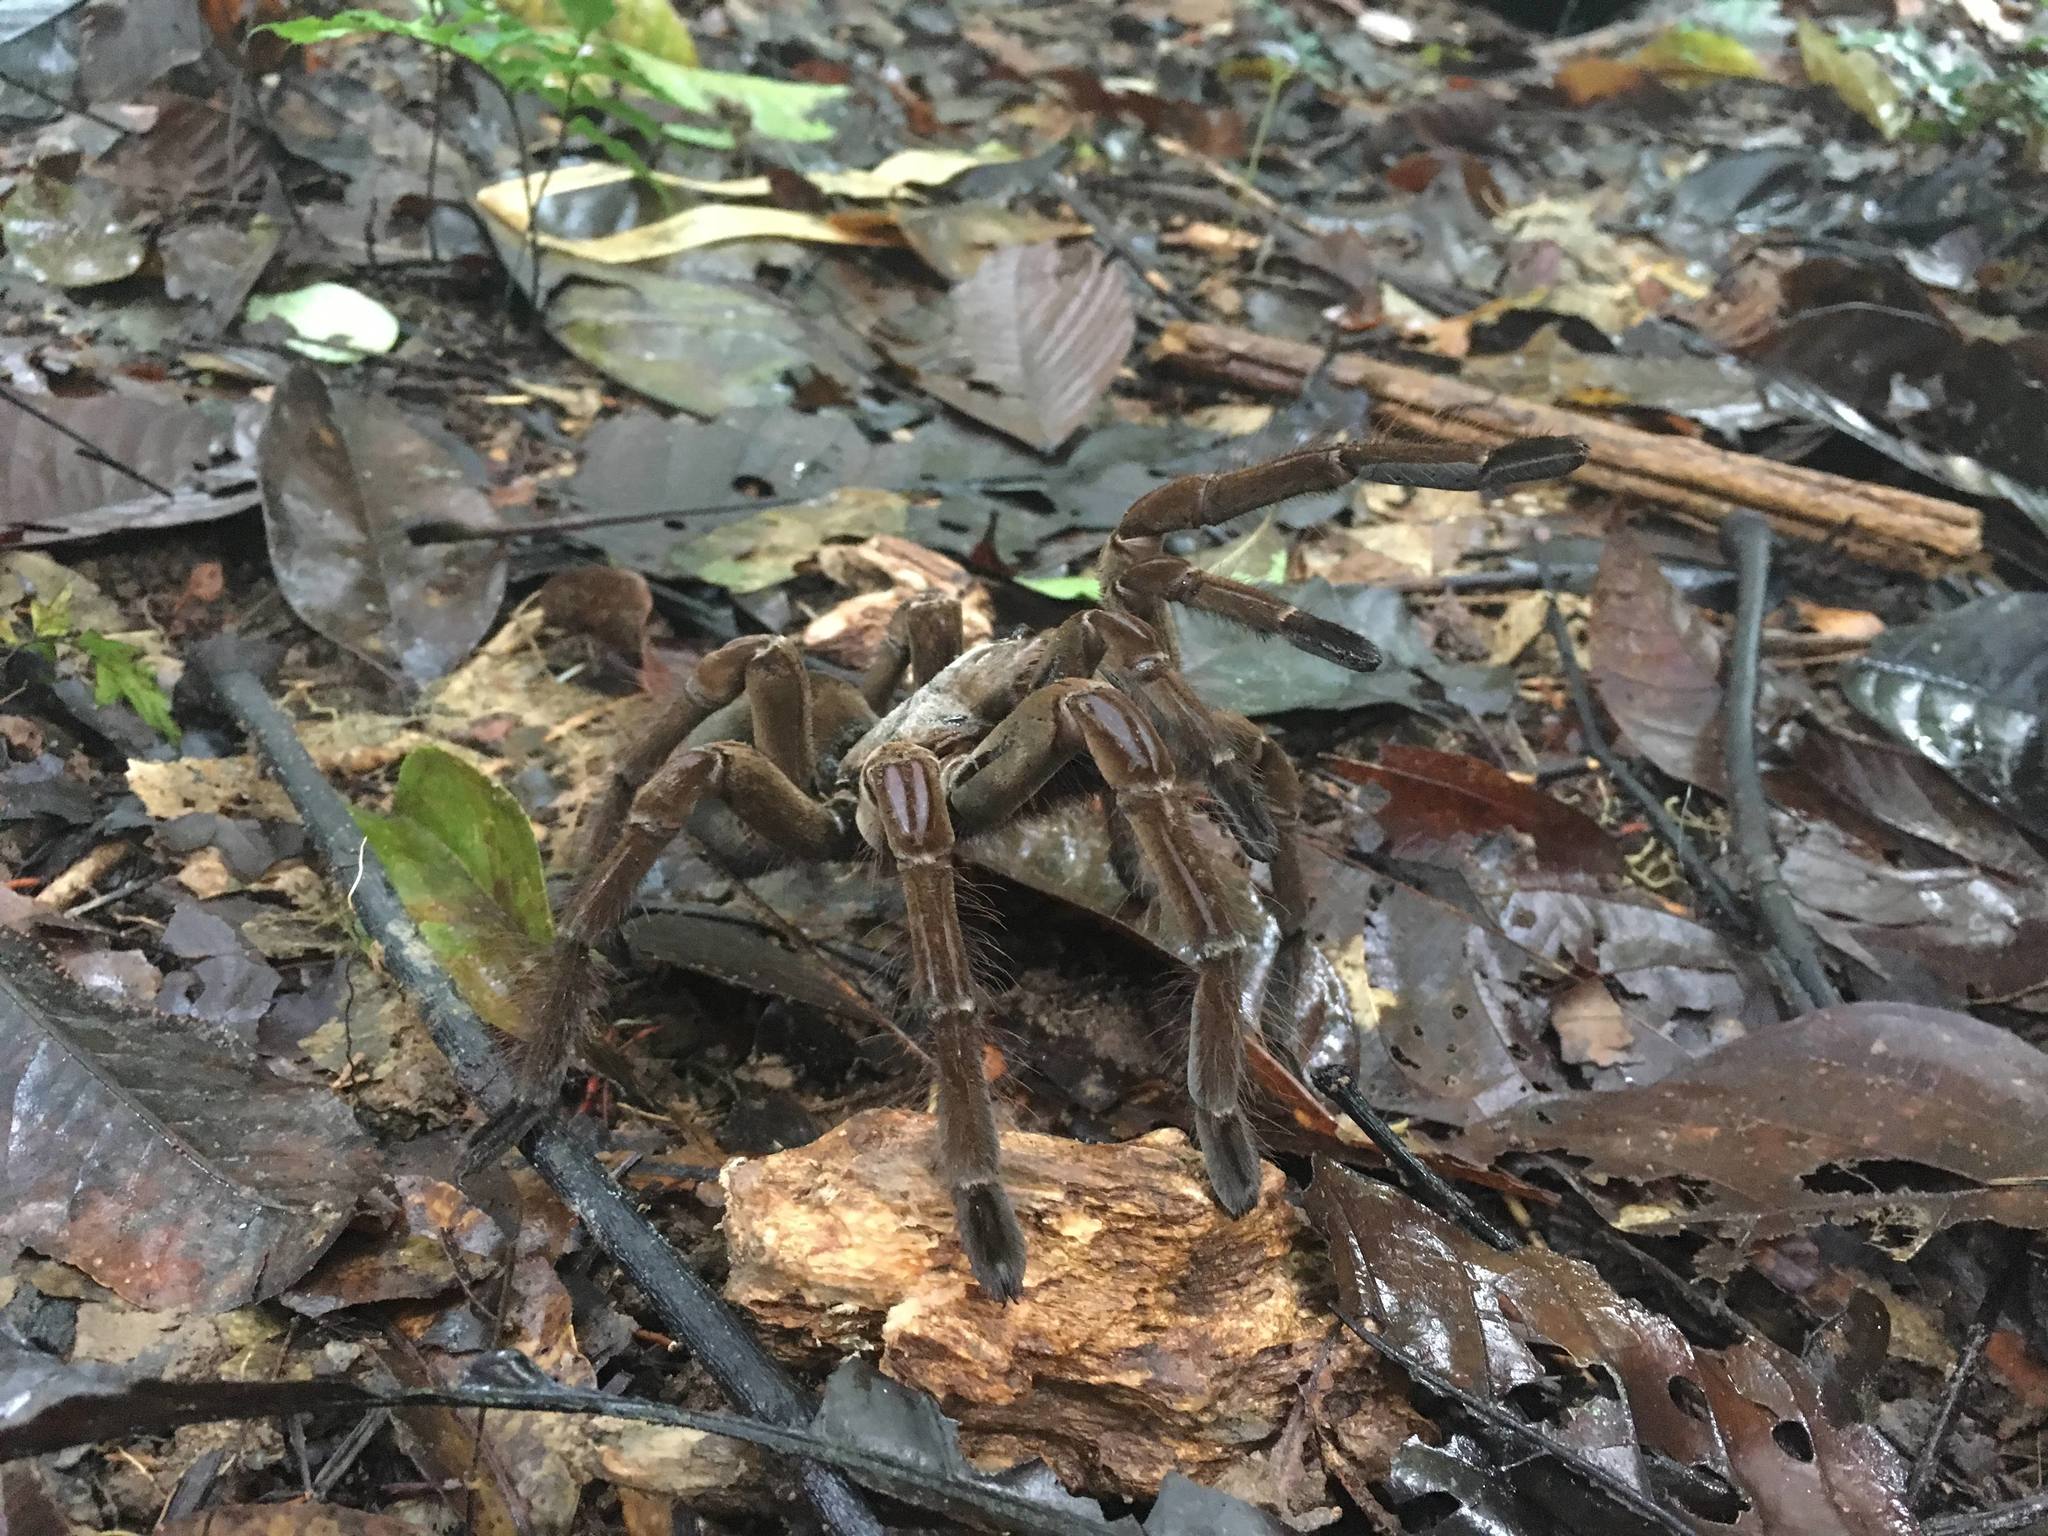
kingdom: Animalia
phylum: Arthropoda
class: Arachnida
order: Araneae
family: Theraphosidae
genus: Theraphosa
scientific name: Theraphosa stirmi
